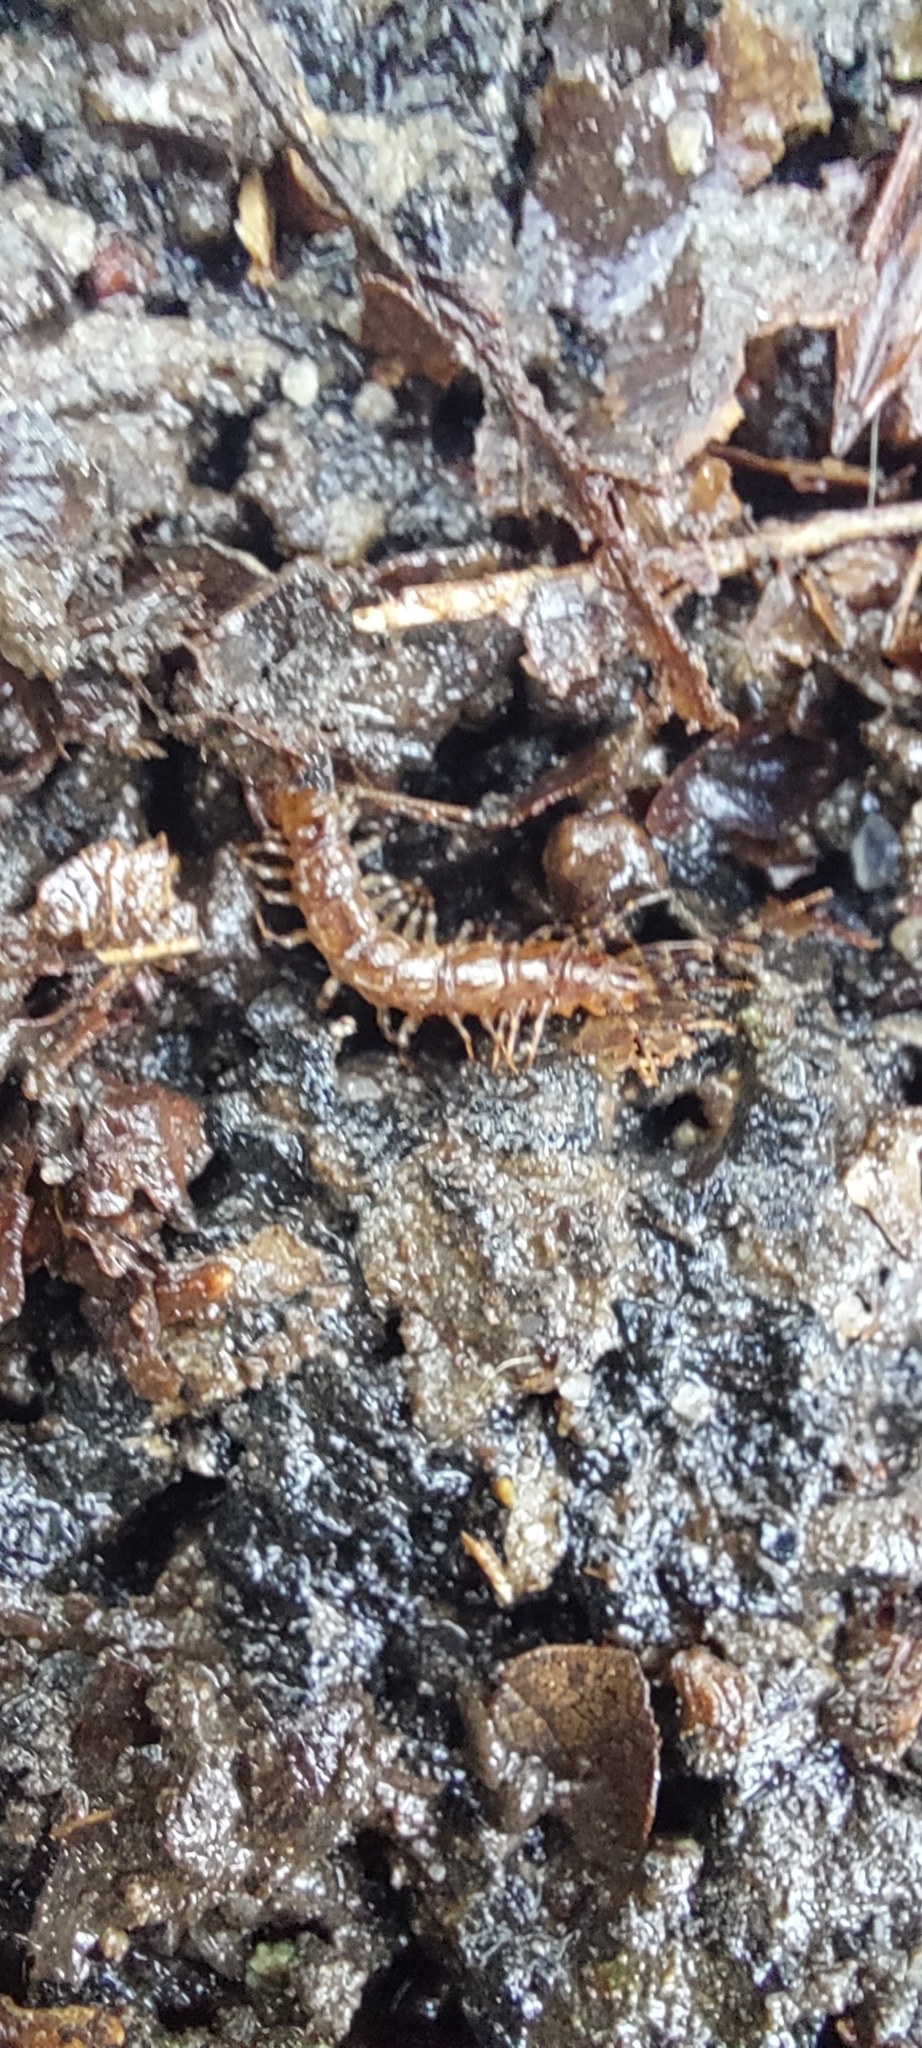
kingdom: Animalia
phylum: Arthropoda
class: Chilopoda
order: Lithobiomorpha
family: Lithobiidae
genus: Lithobius
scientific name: Lithobius variegatus
